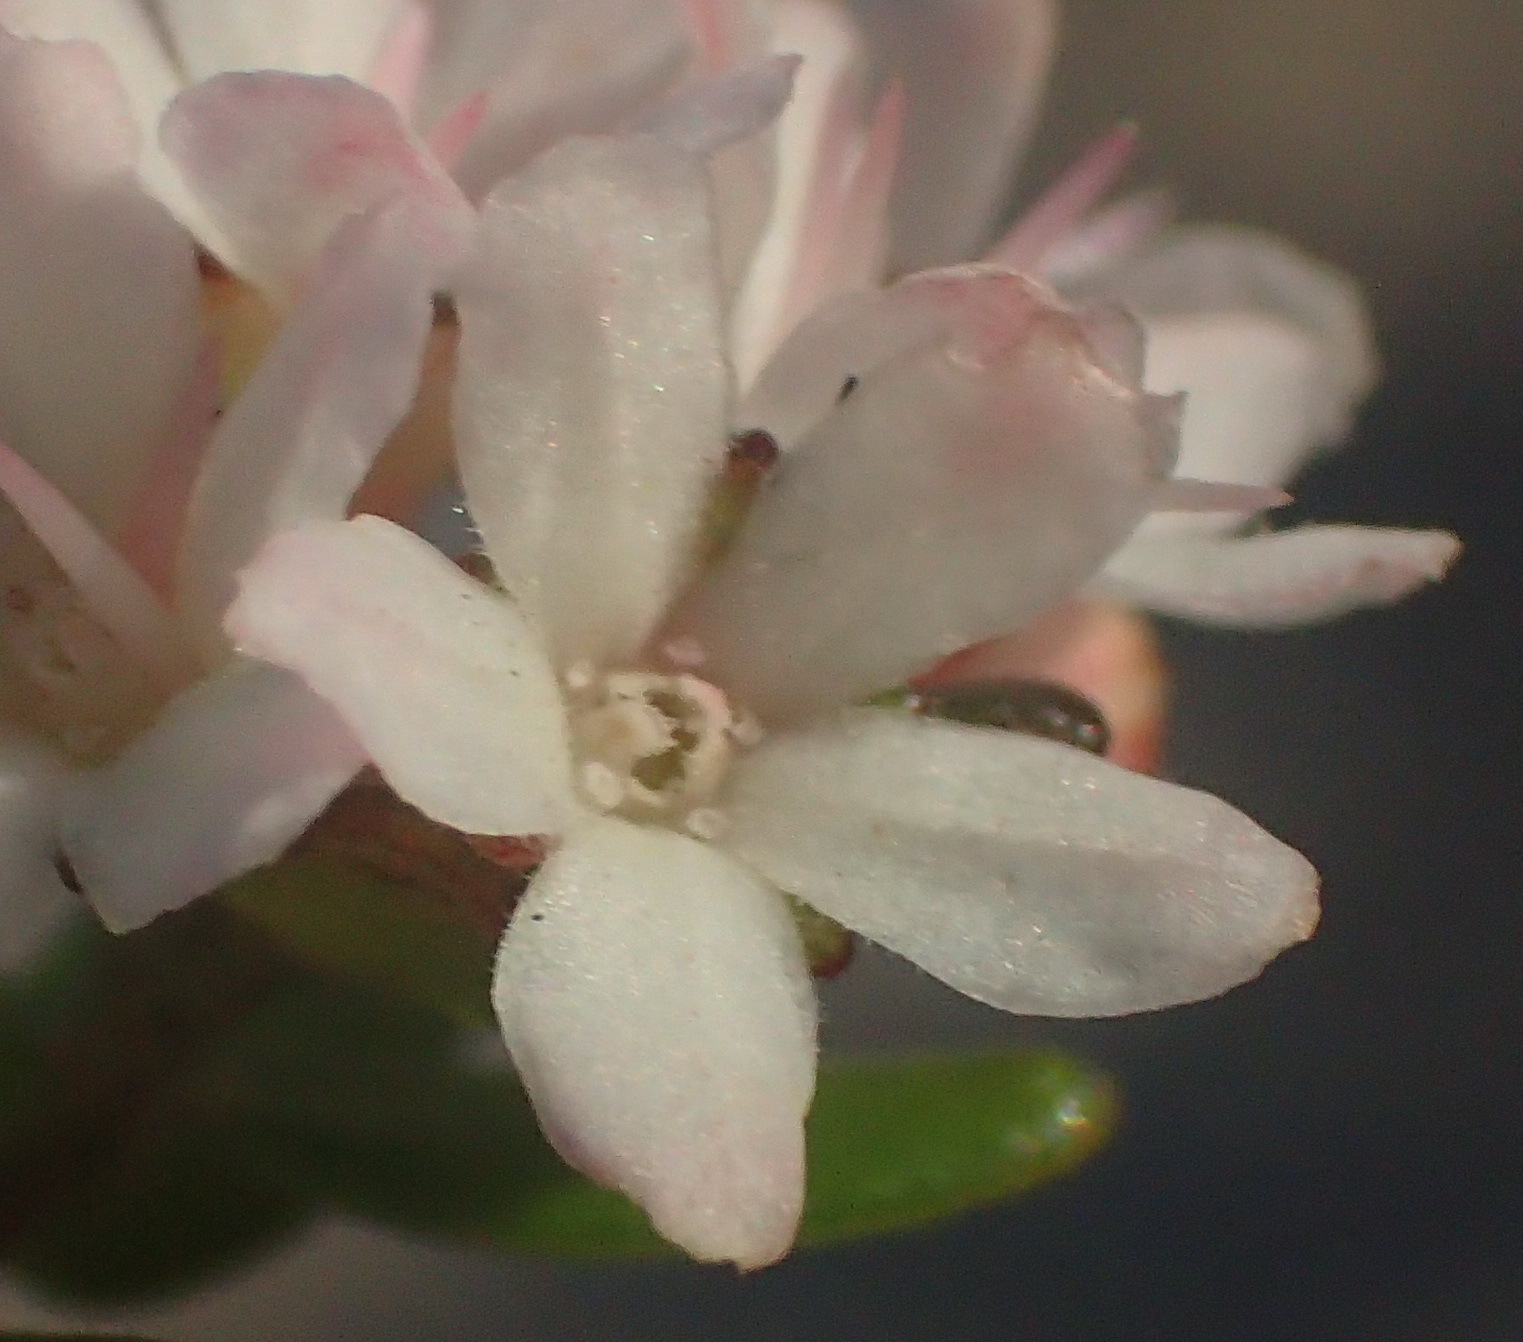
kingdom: Plantae
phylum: Tracheophyta
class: Magnoliopsida
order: Sapindales
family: Rutaceae
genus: Agathosma
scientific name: Agathosma planifolia
